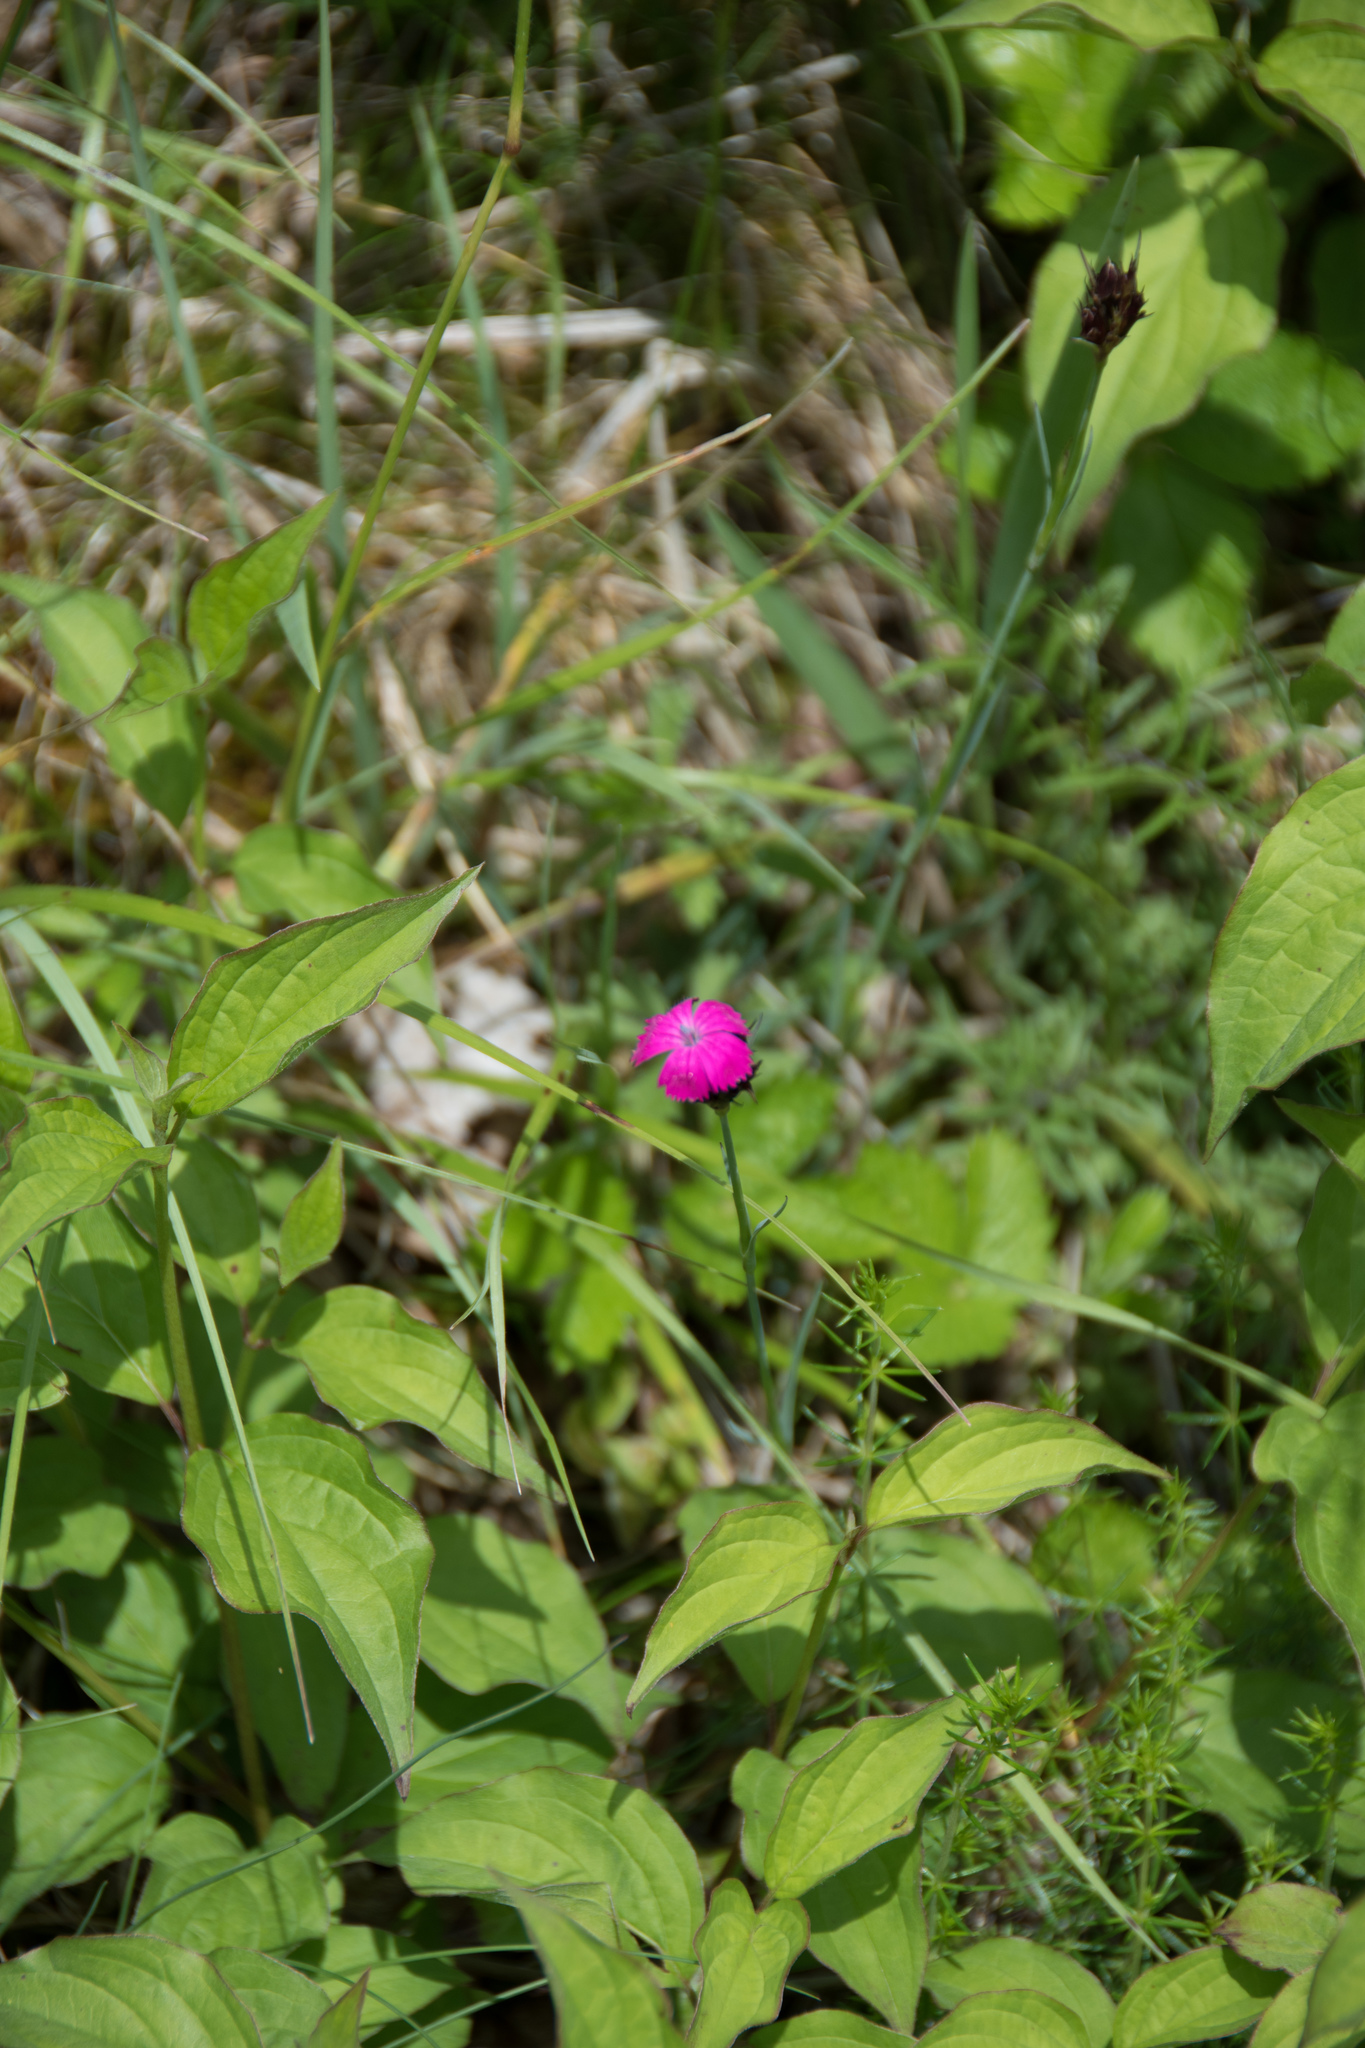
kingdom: Plantae
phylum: Tracheophyta
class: Magnoliopsida
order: Caryophyllales
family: Caryophyllaceae
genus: Dianthus
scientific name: Dianthus carthusianorum
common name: Carthusian pink
